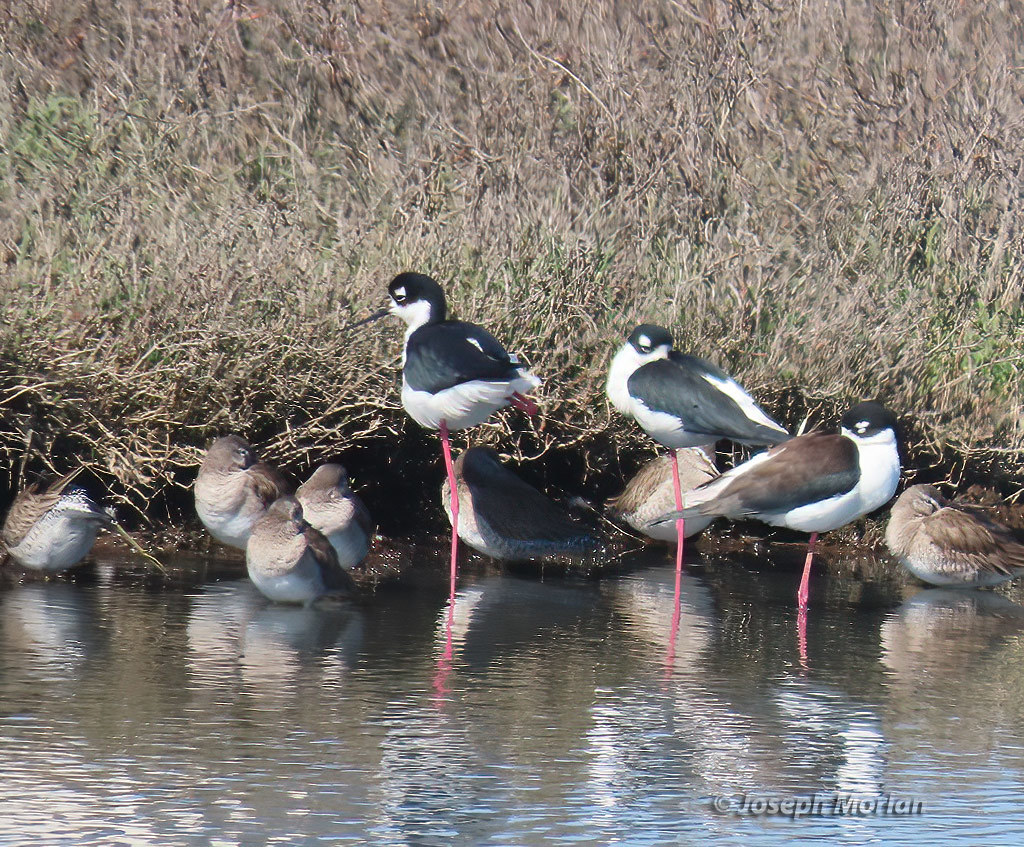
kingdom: Animalia
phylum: Chordata
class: Aves
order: Charadriiformes
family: Recurvirostridae
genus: Himantopus
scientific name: Himantopus mexicanus
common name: Black-necked stilt
